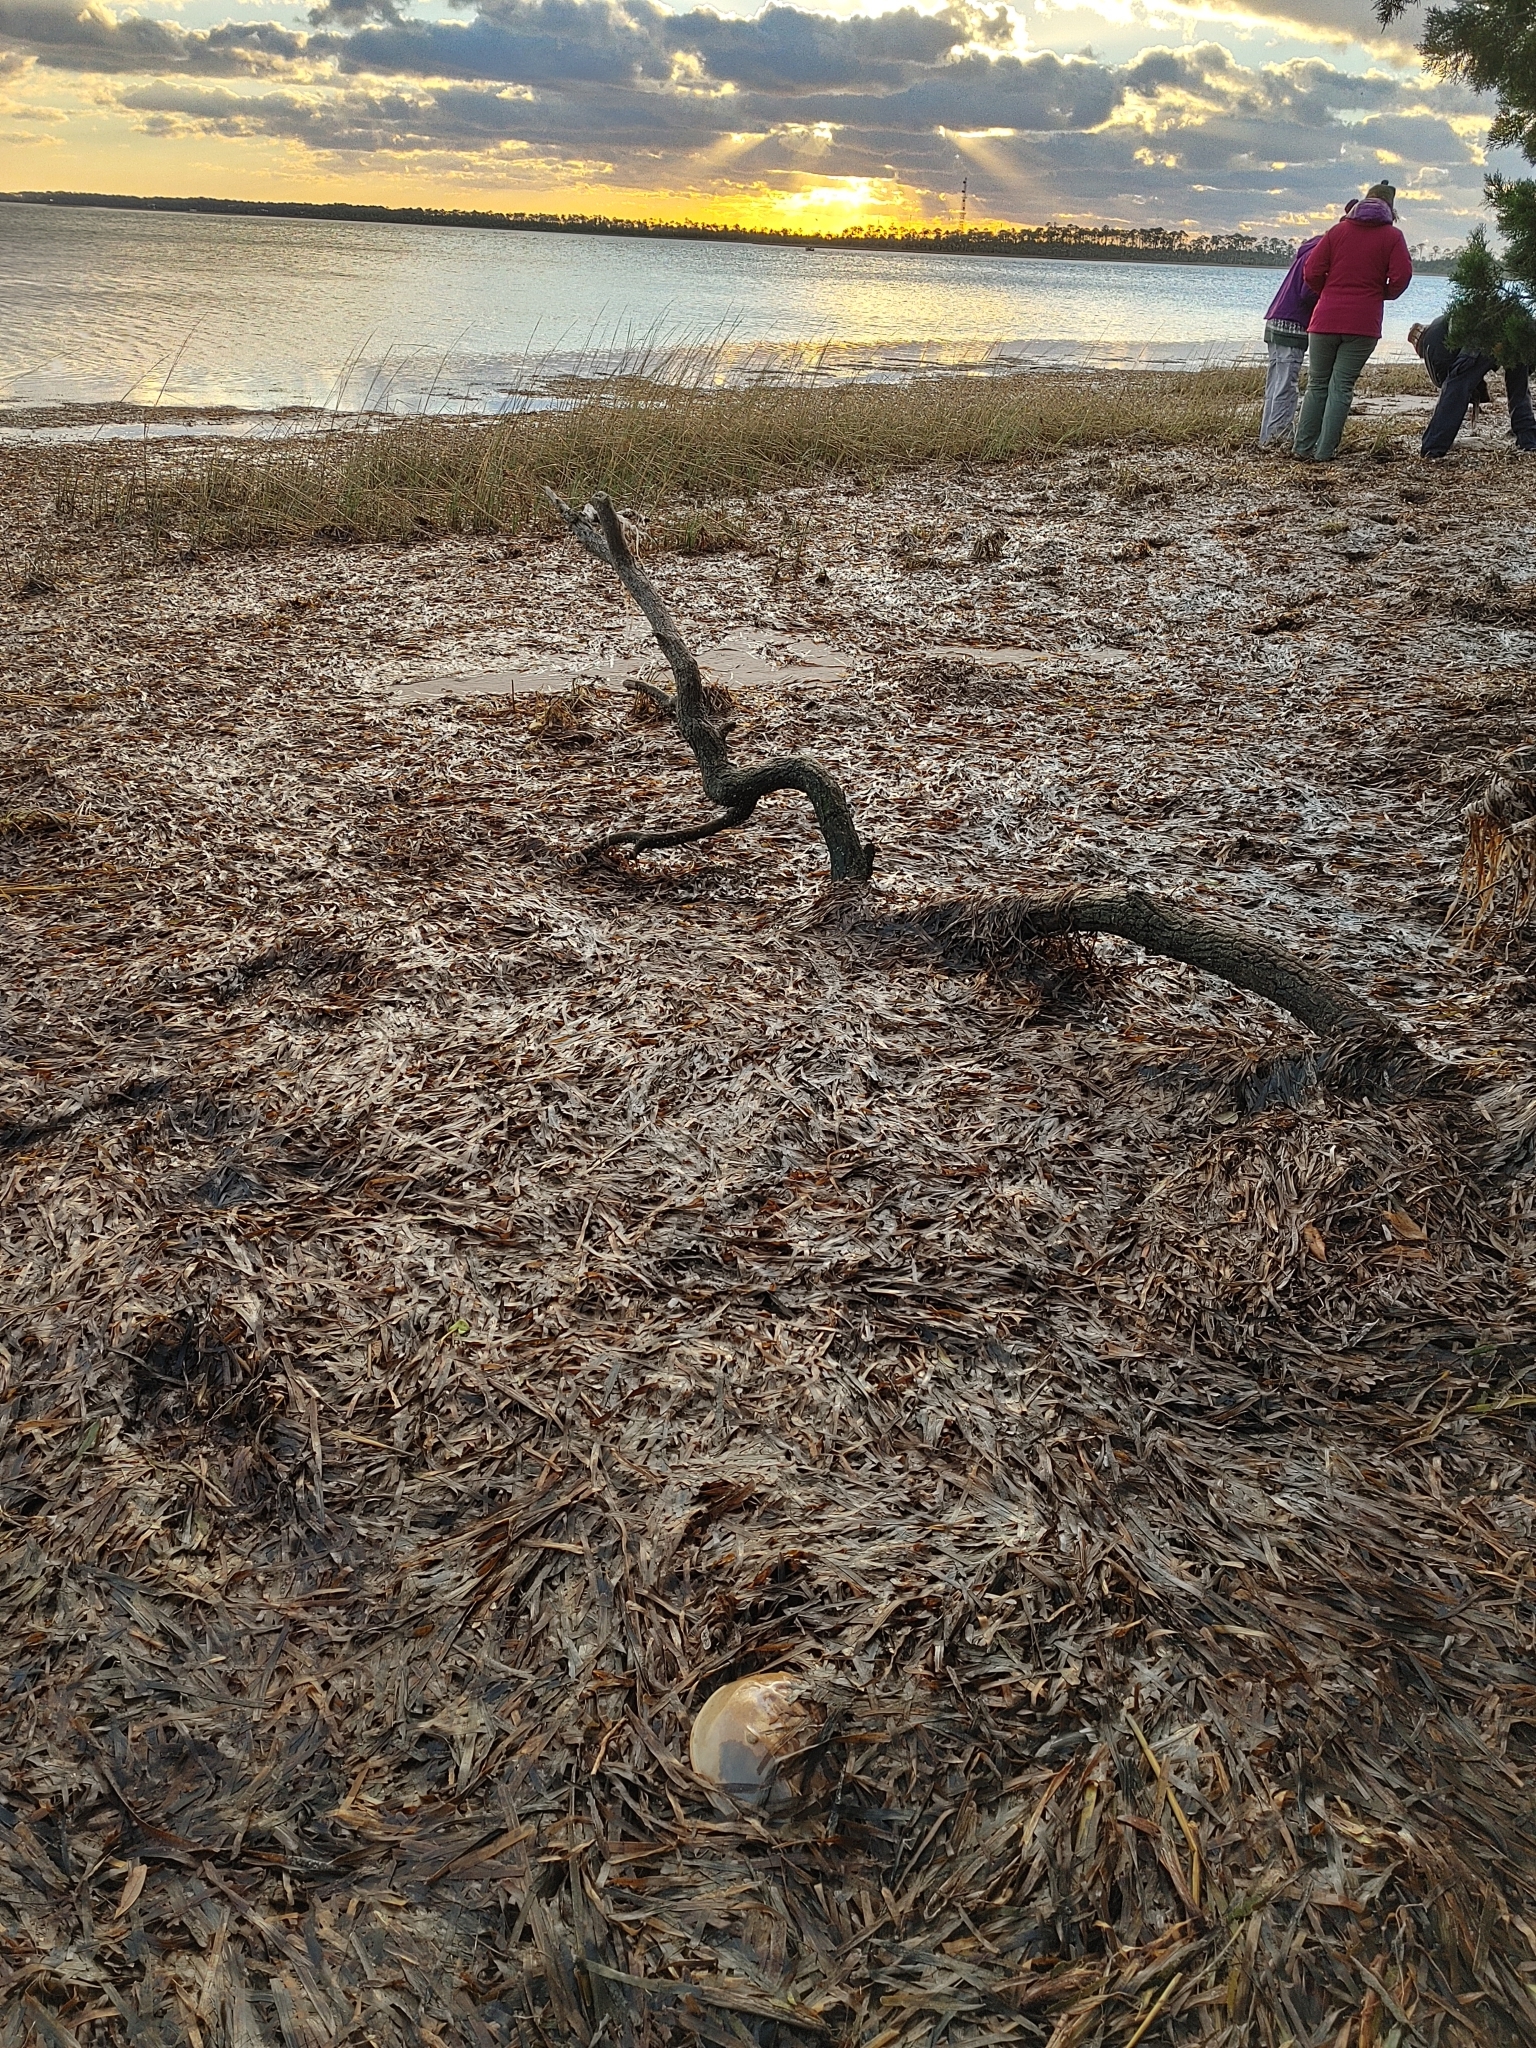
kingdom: Plantae
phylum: Tracheophyta
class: Liliopsida
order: Alismatales
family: Hydrocharitaceae
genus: Thalassia
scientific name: Thalassia testudinum
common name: Species code: tt
